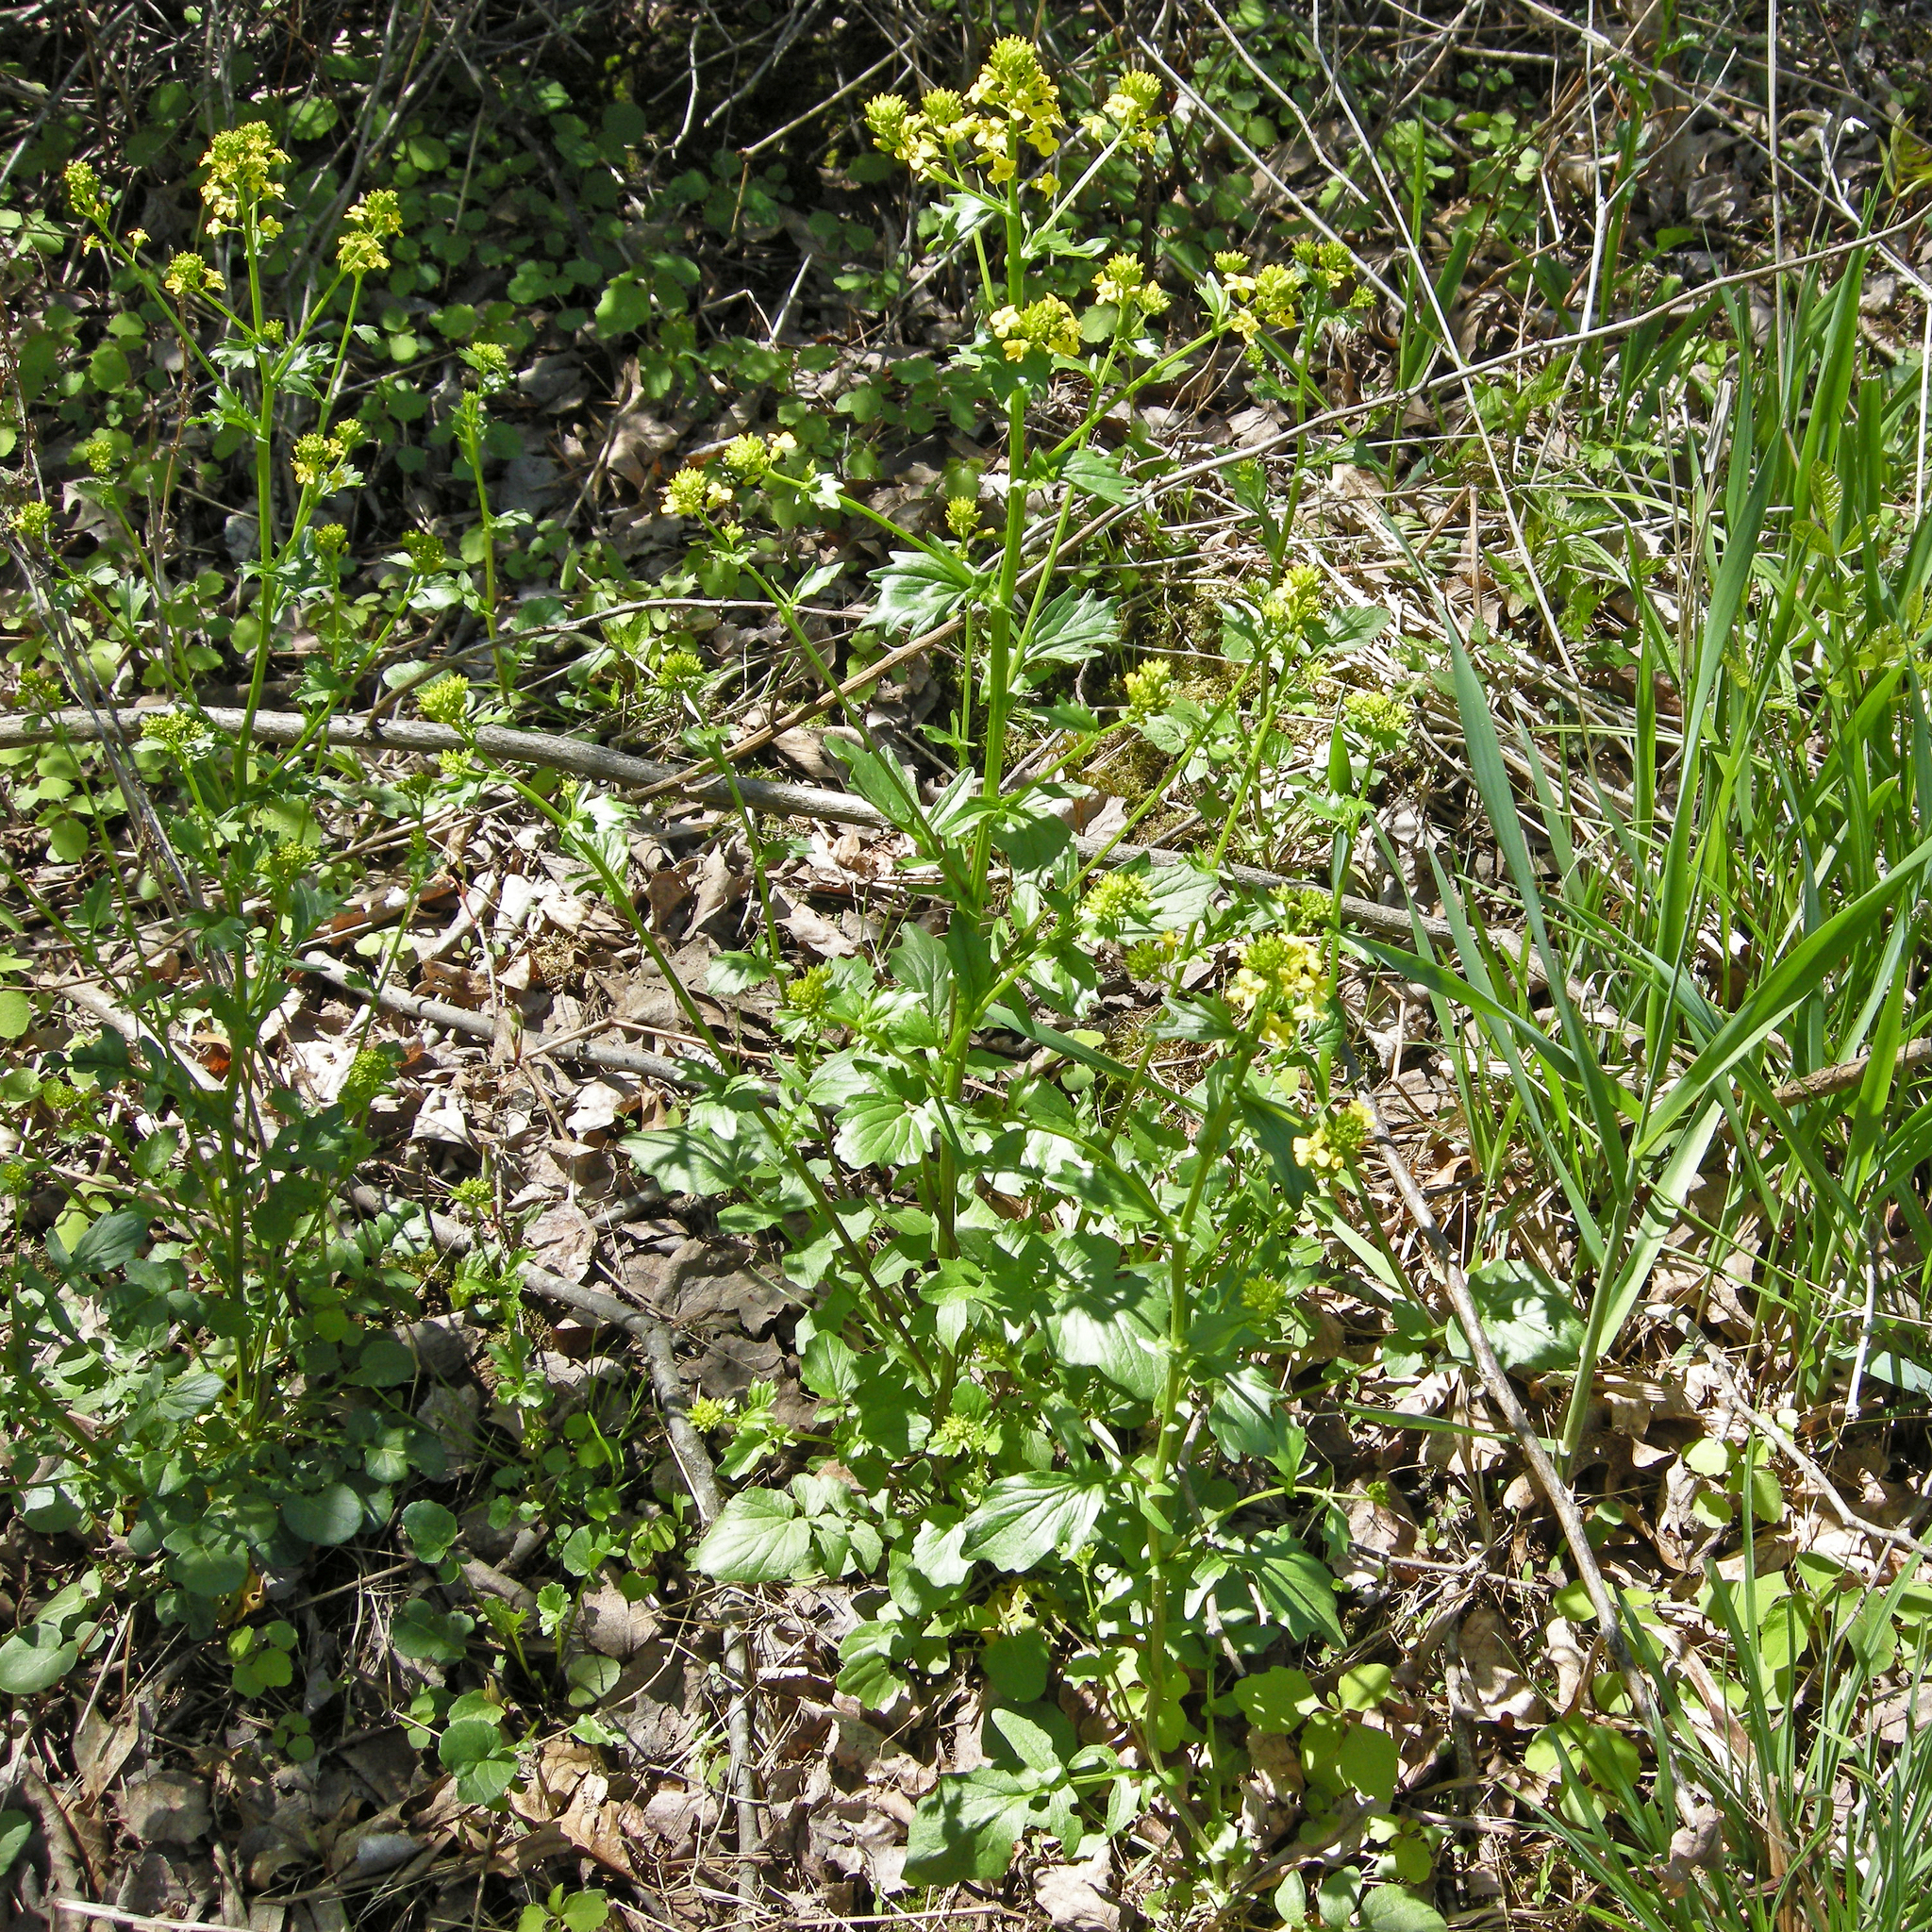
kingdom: Plantae
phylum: Tracheophyta
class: Magnoliopsida
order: Brassicales
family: Brassicaceae
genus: Barbarea
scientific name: Barbarea vulgaris
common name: Cressy-greens
